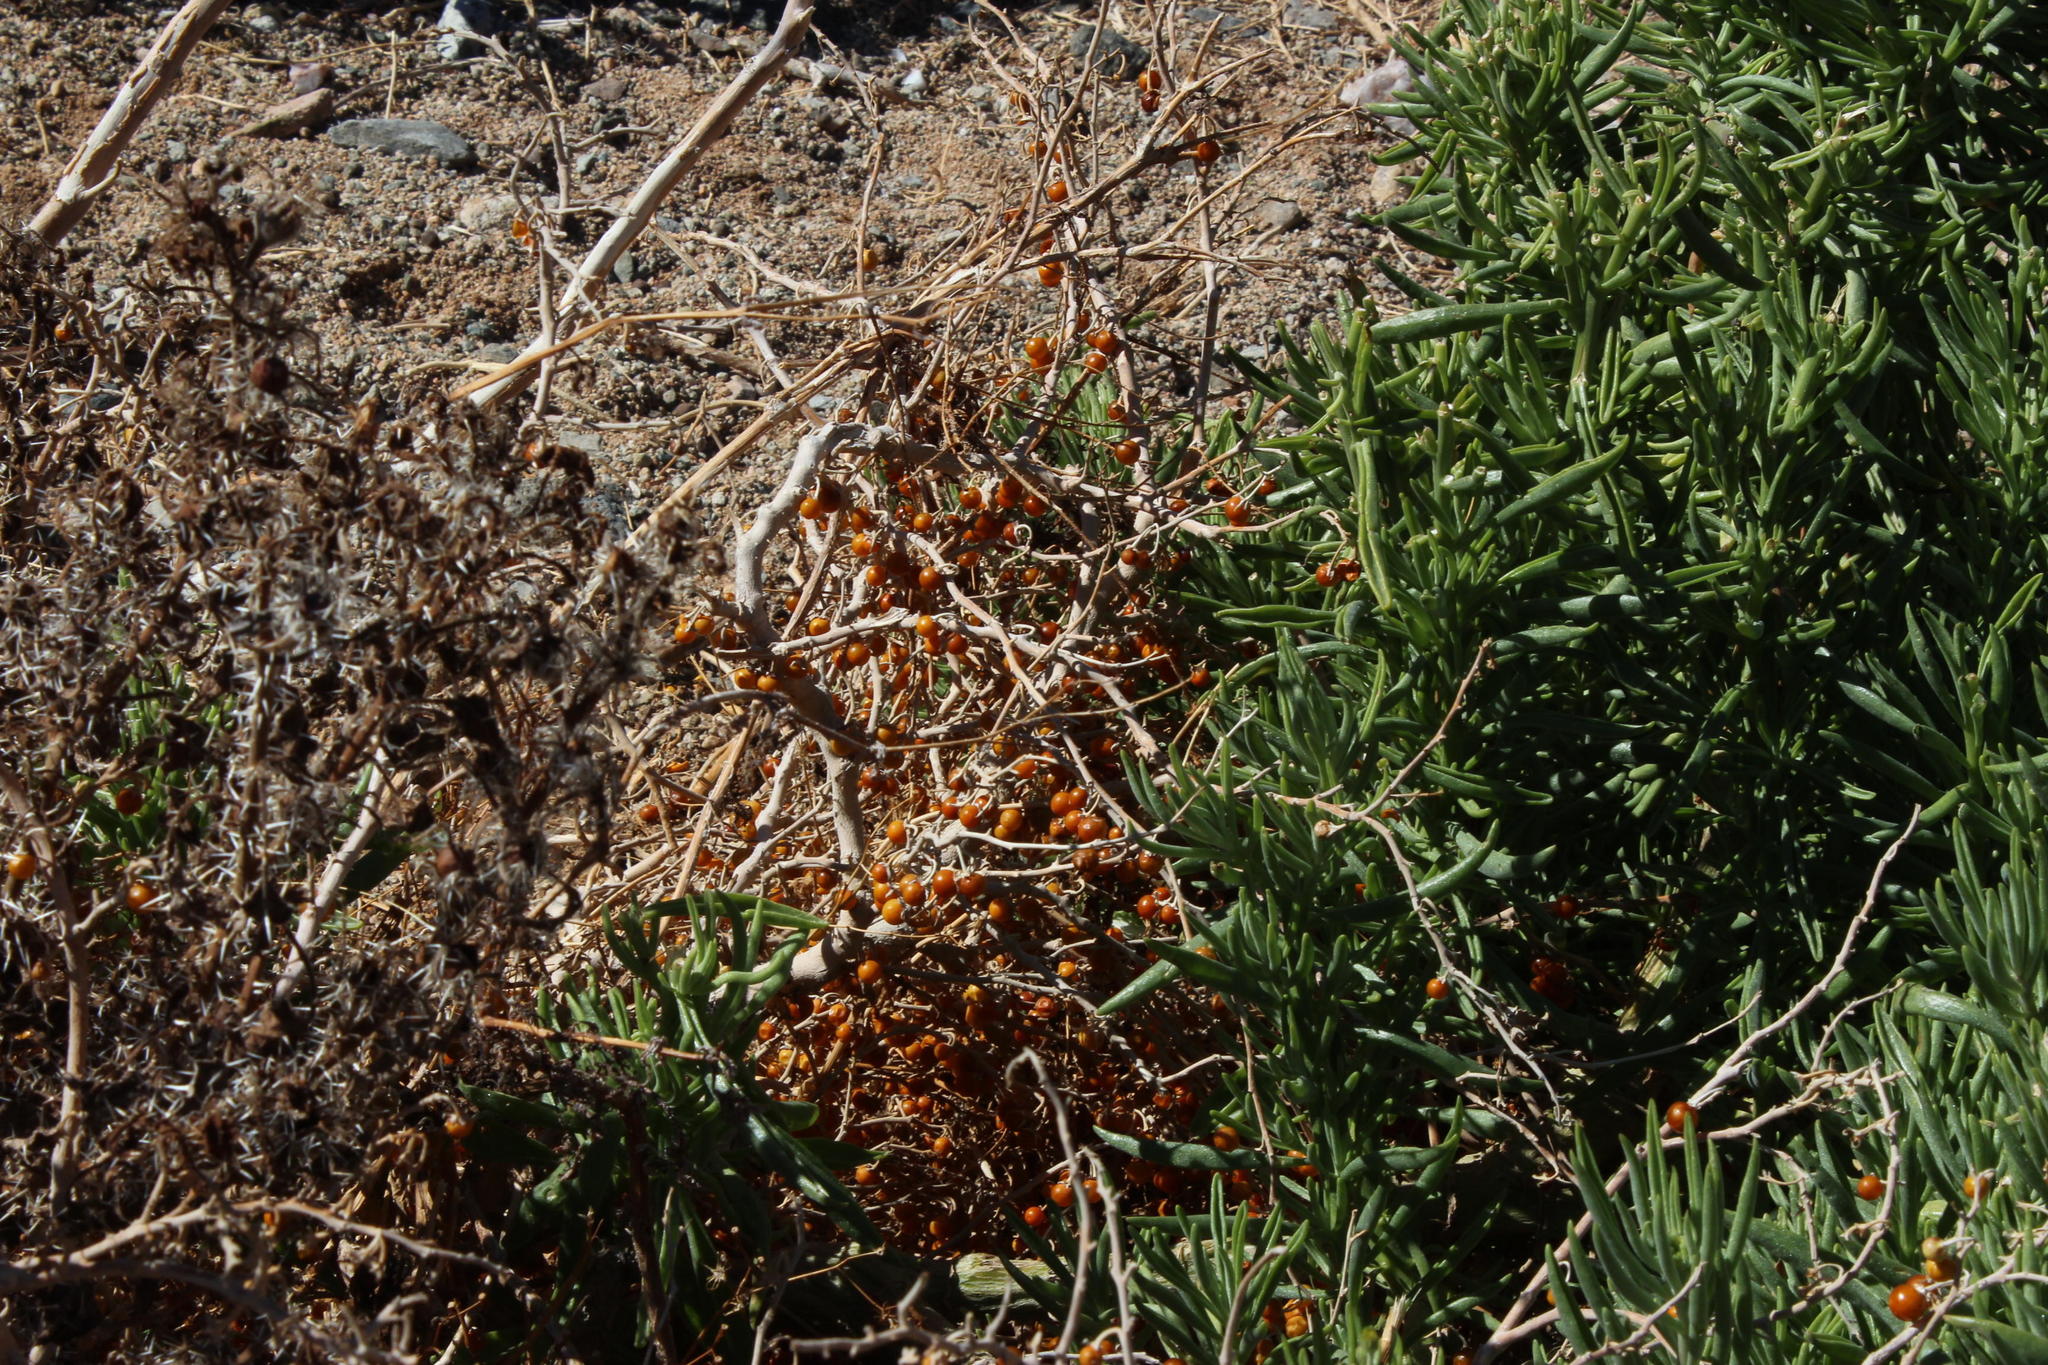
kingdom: Plantae
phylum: Tracheophyta
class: Magnoliopsida
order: Solanales
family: Solanaceae
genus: Solanum
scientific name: Solanum burchellii
